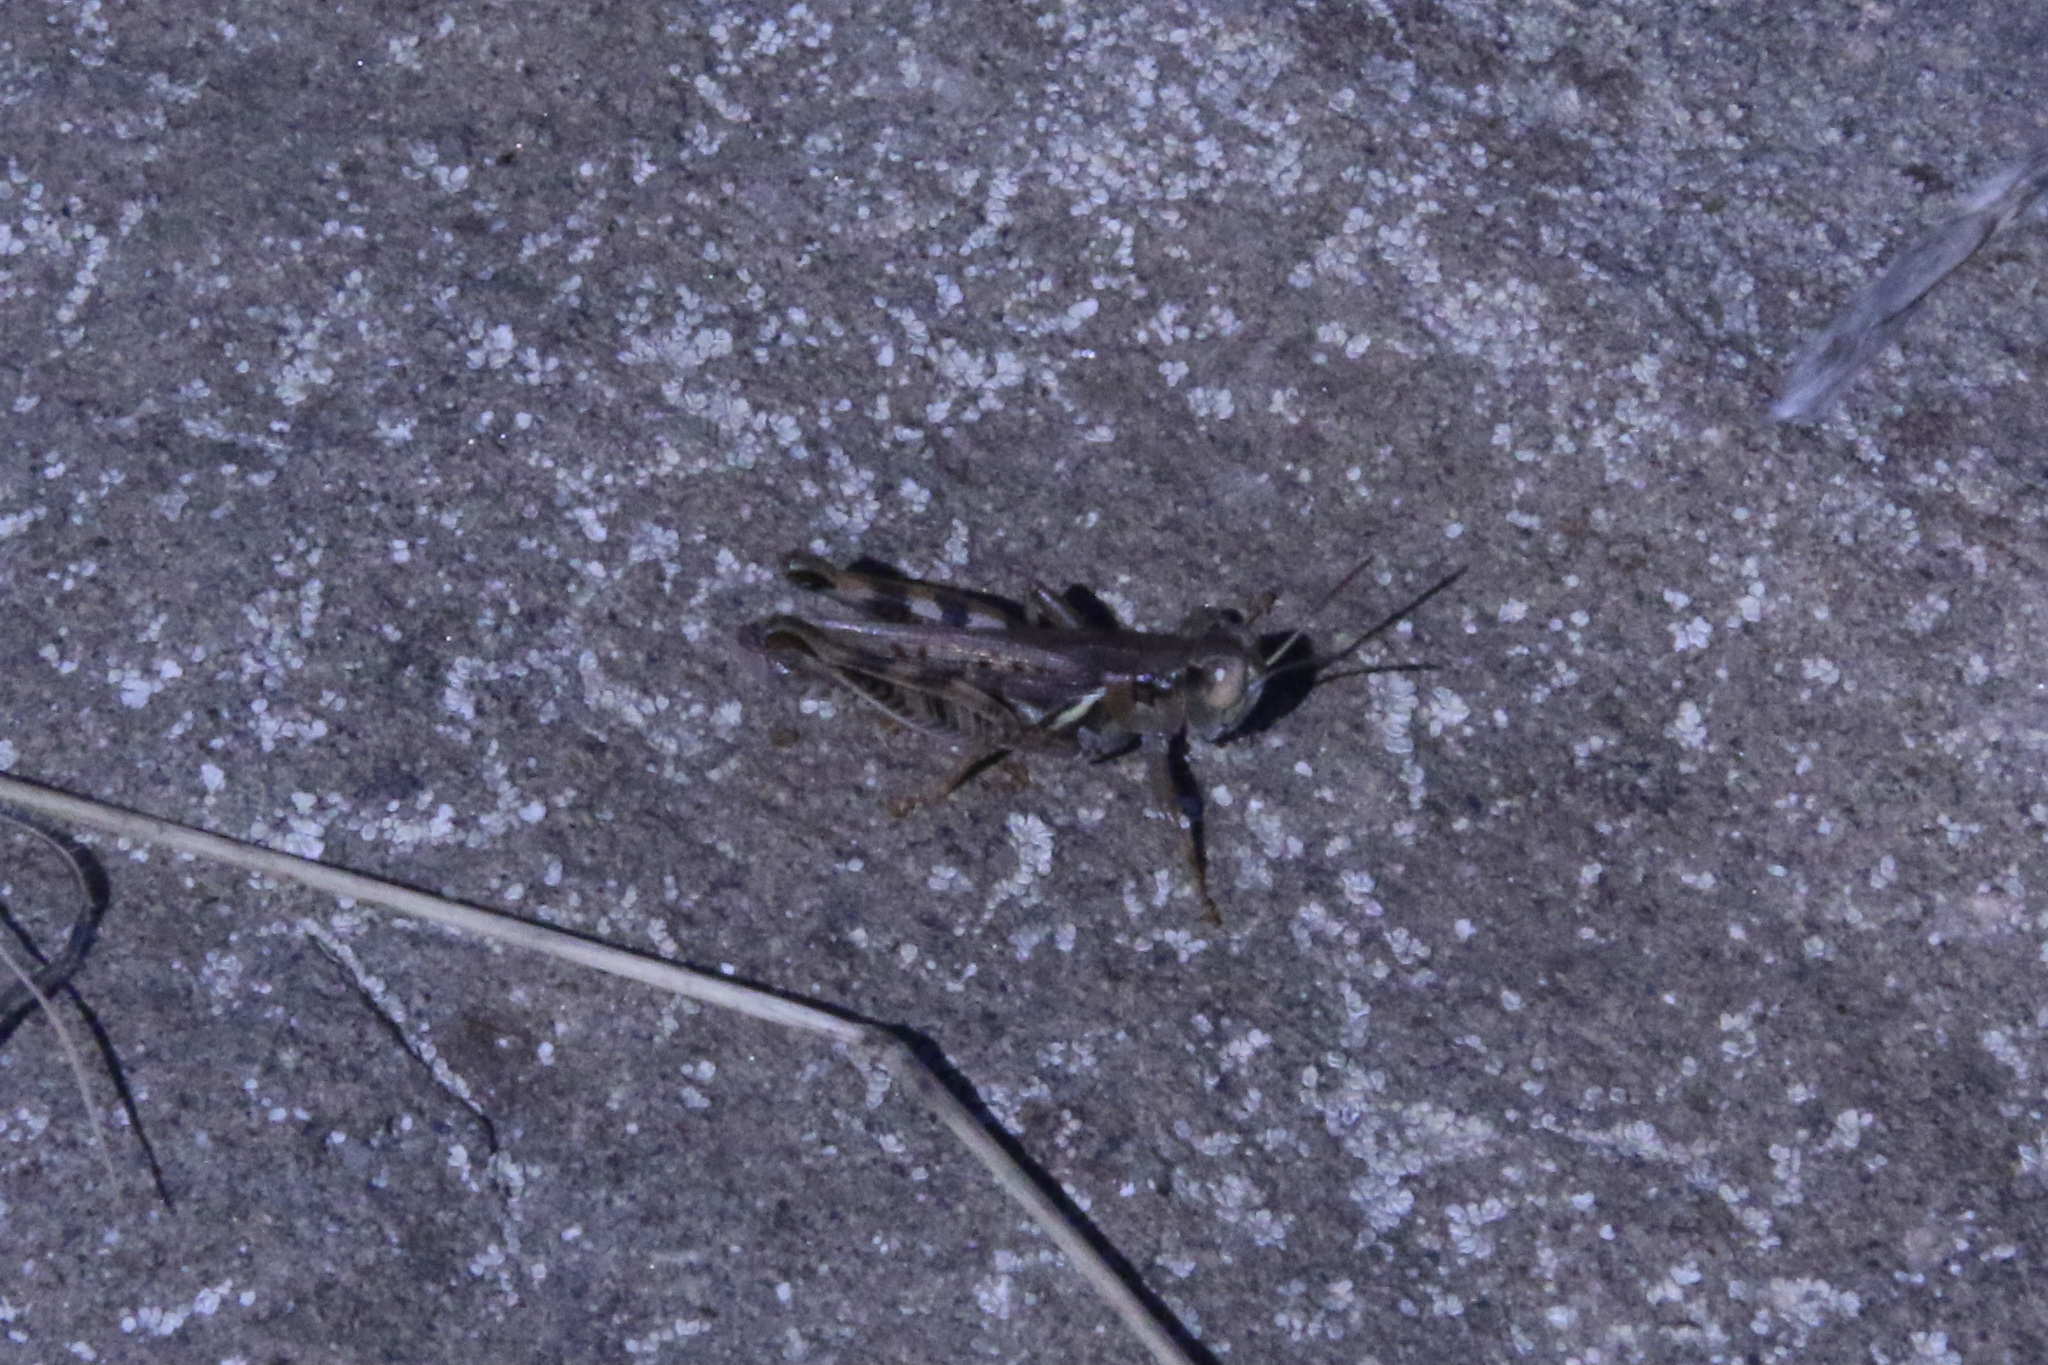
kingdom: Animalia
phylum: Arthropoda
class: Insecta
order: Orthoptera
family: Acrididae
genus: Melanoplus
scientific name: Melanoplus devastator
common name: Devastating grasshopper
